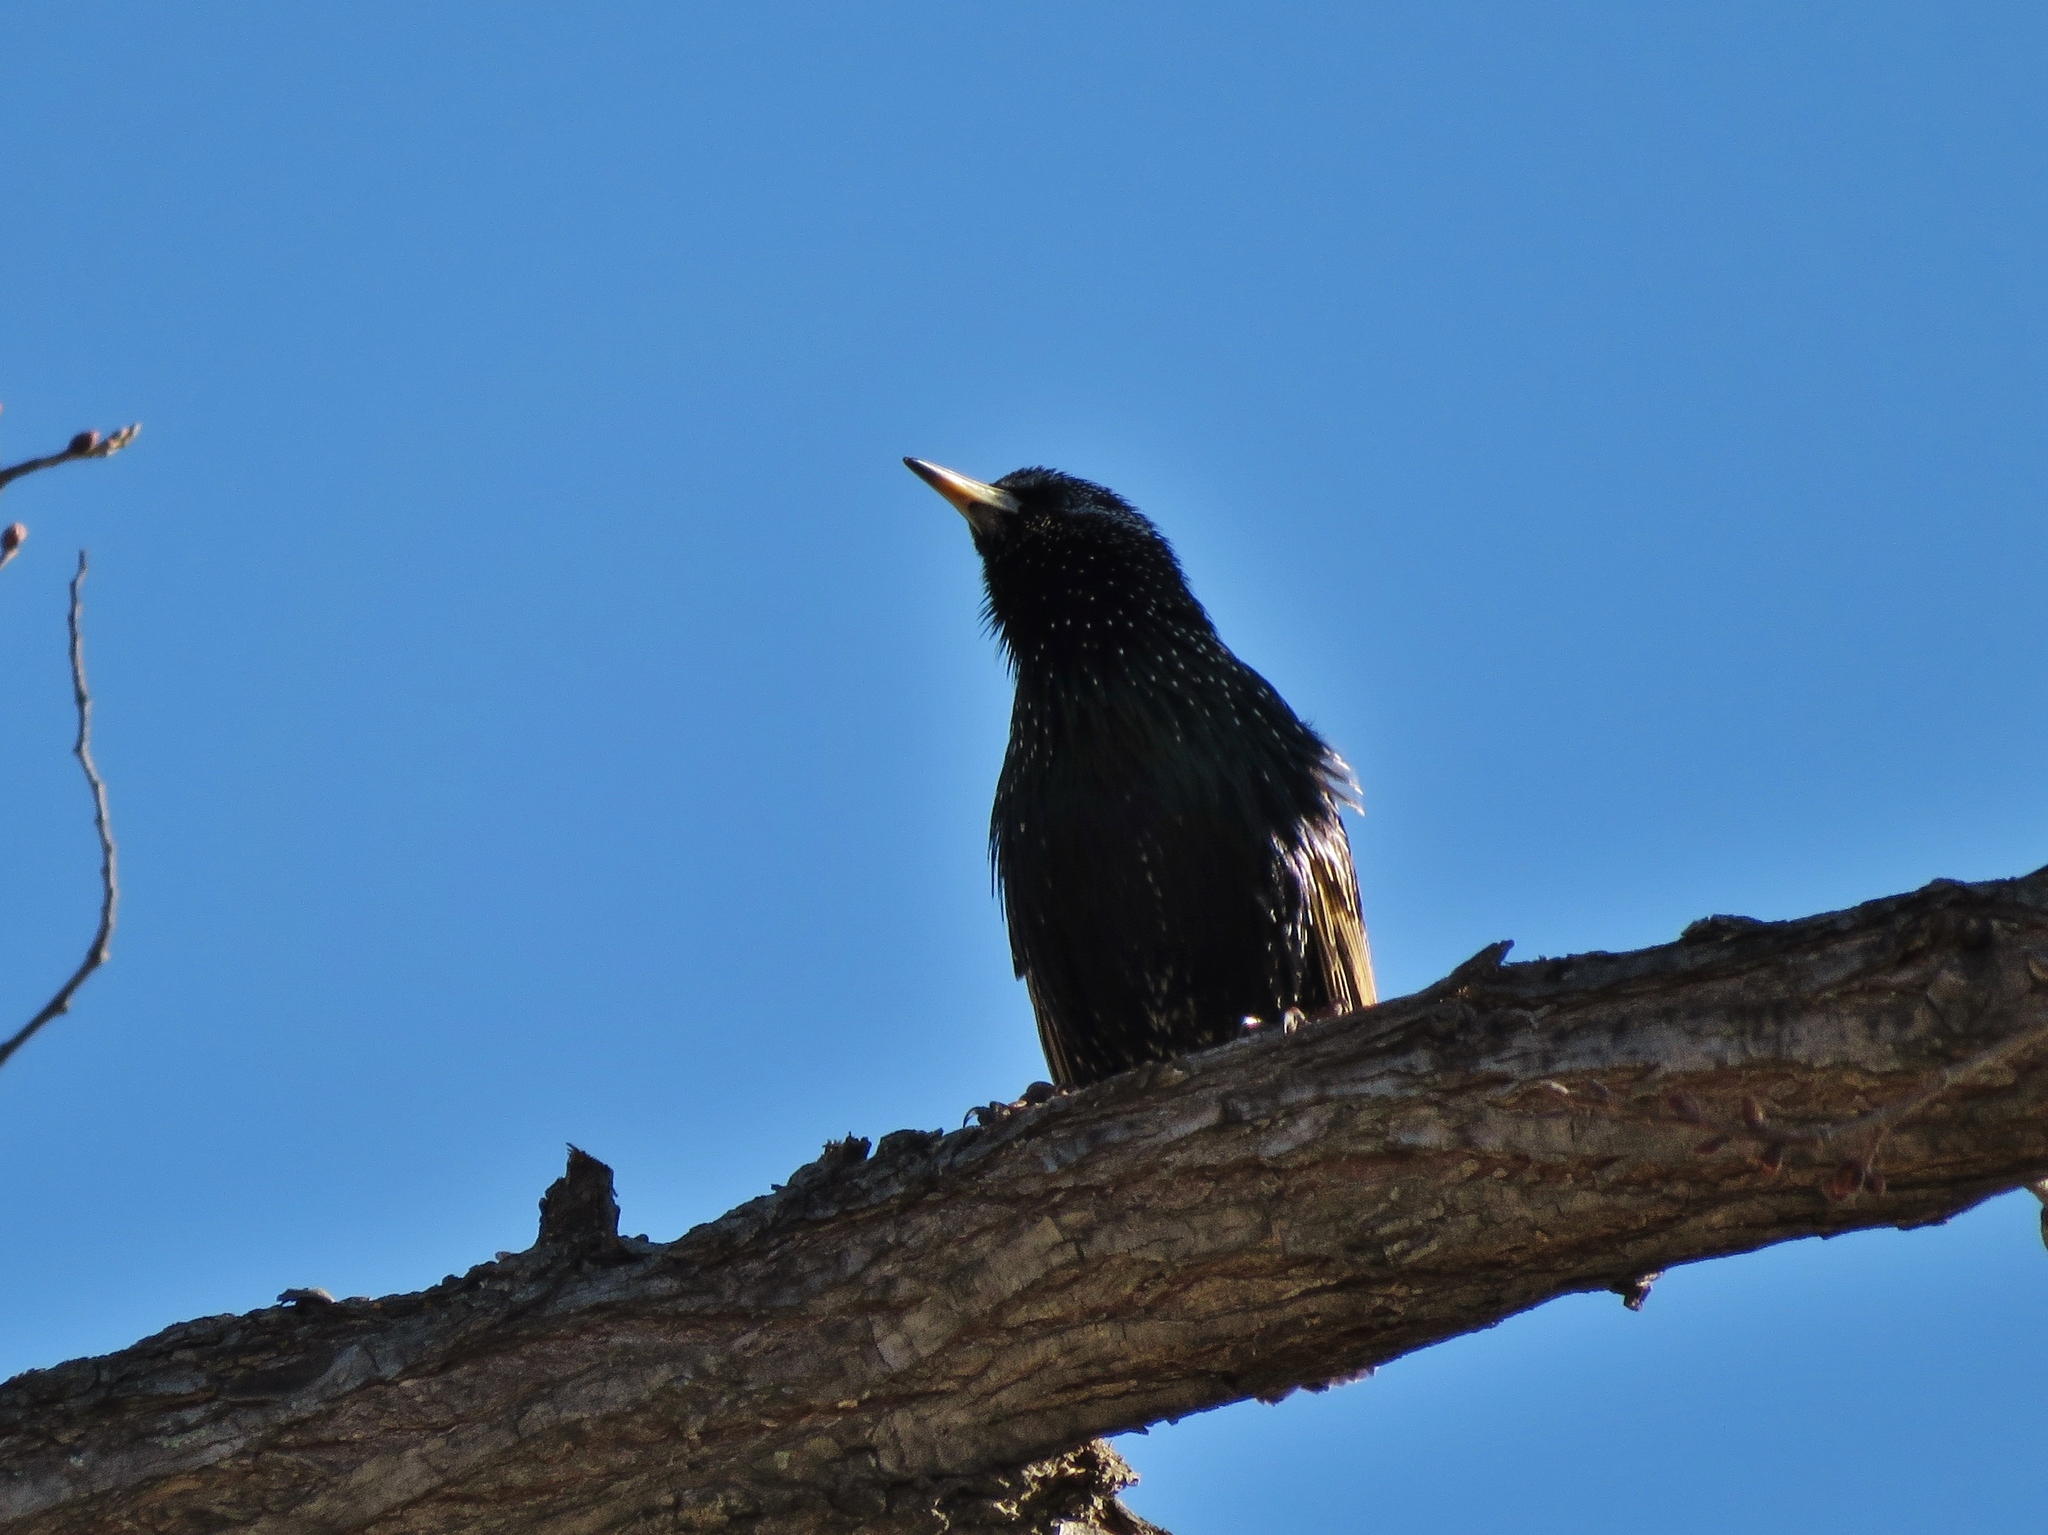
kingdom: Animalia
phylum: Chordata
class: Aves
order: Passeriformes
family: Sturnidae
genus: Sturnus
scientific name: Sturnus vulgaris
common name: Common starling
